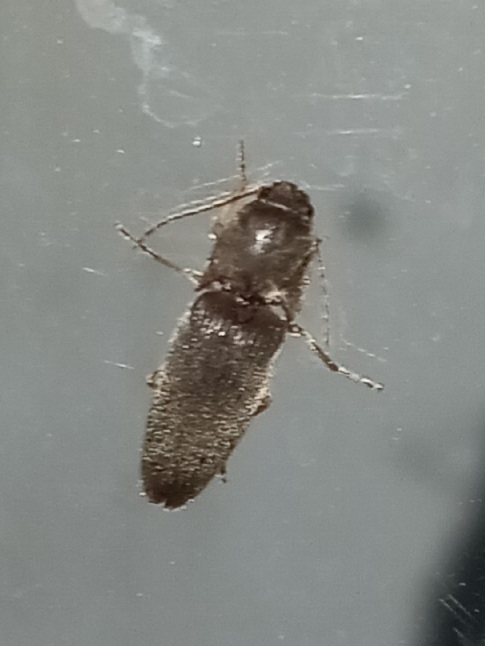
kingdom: Animalia
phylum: Arthropoda
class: Insecta
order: Coleoptera
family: Elateridae
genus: Conoderus
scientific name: Conoderus exsul
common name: Click beetle
